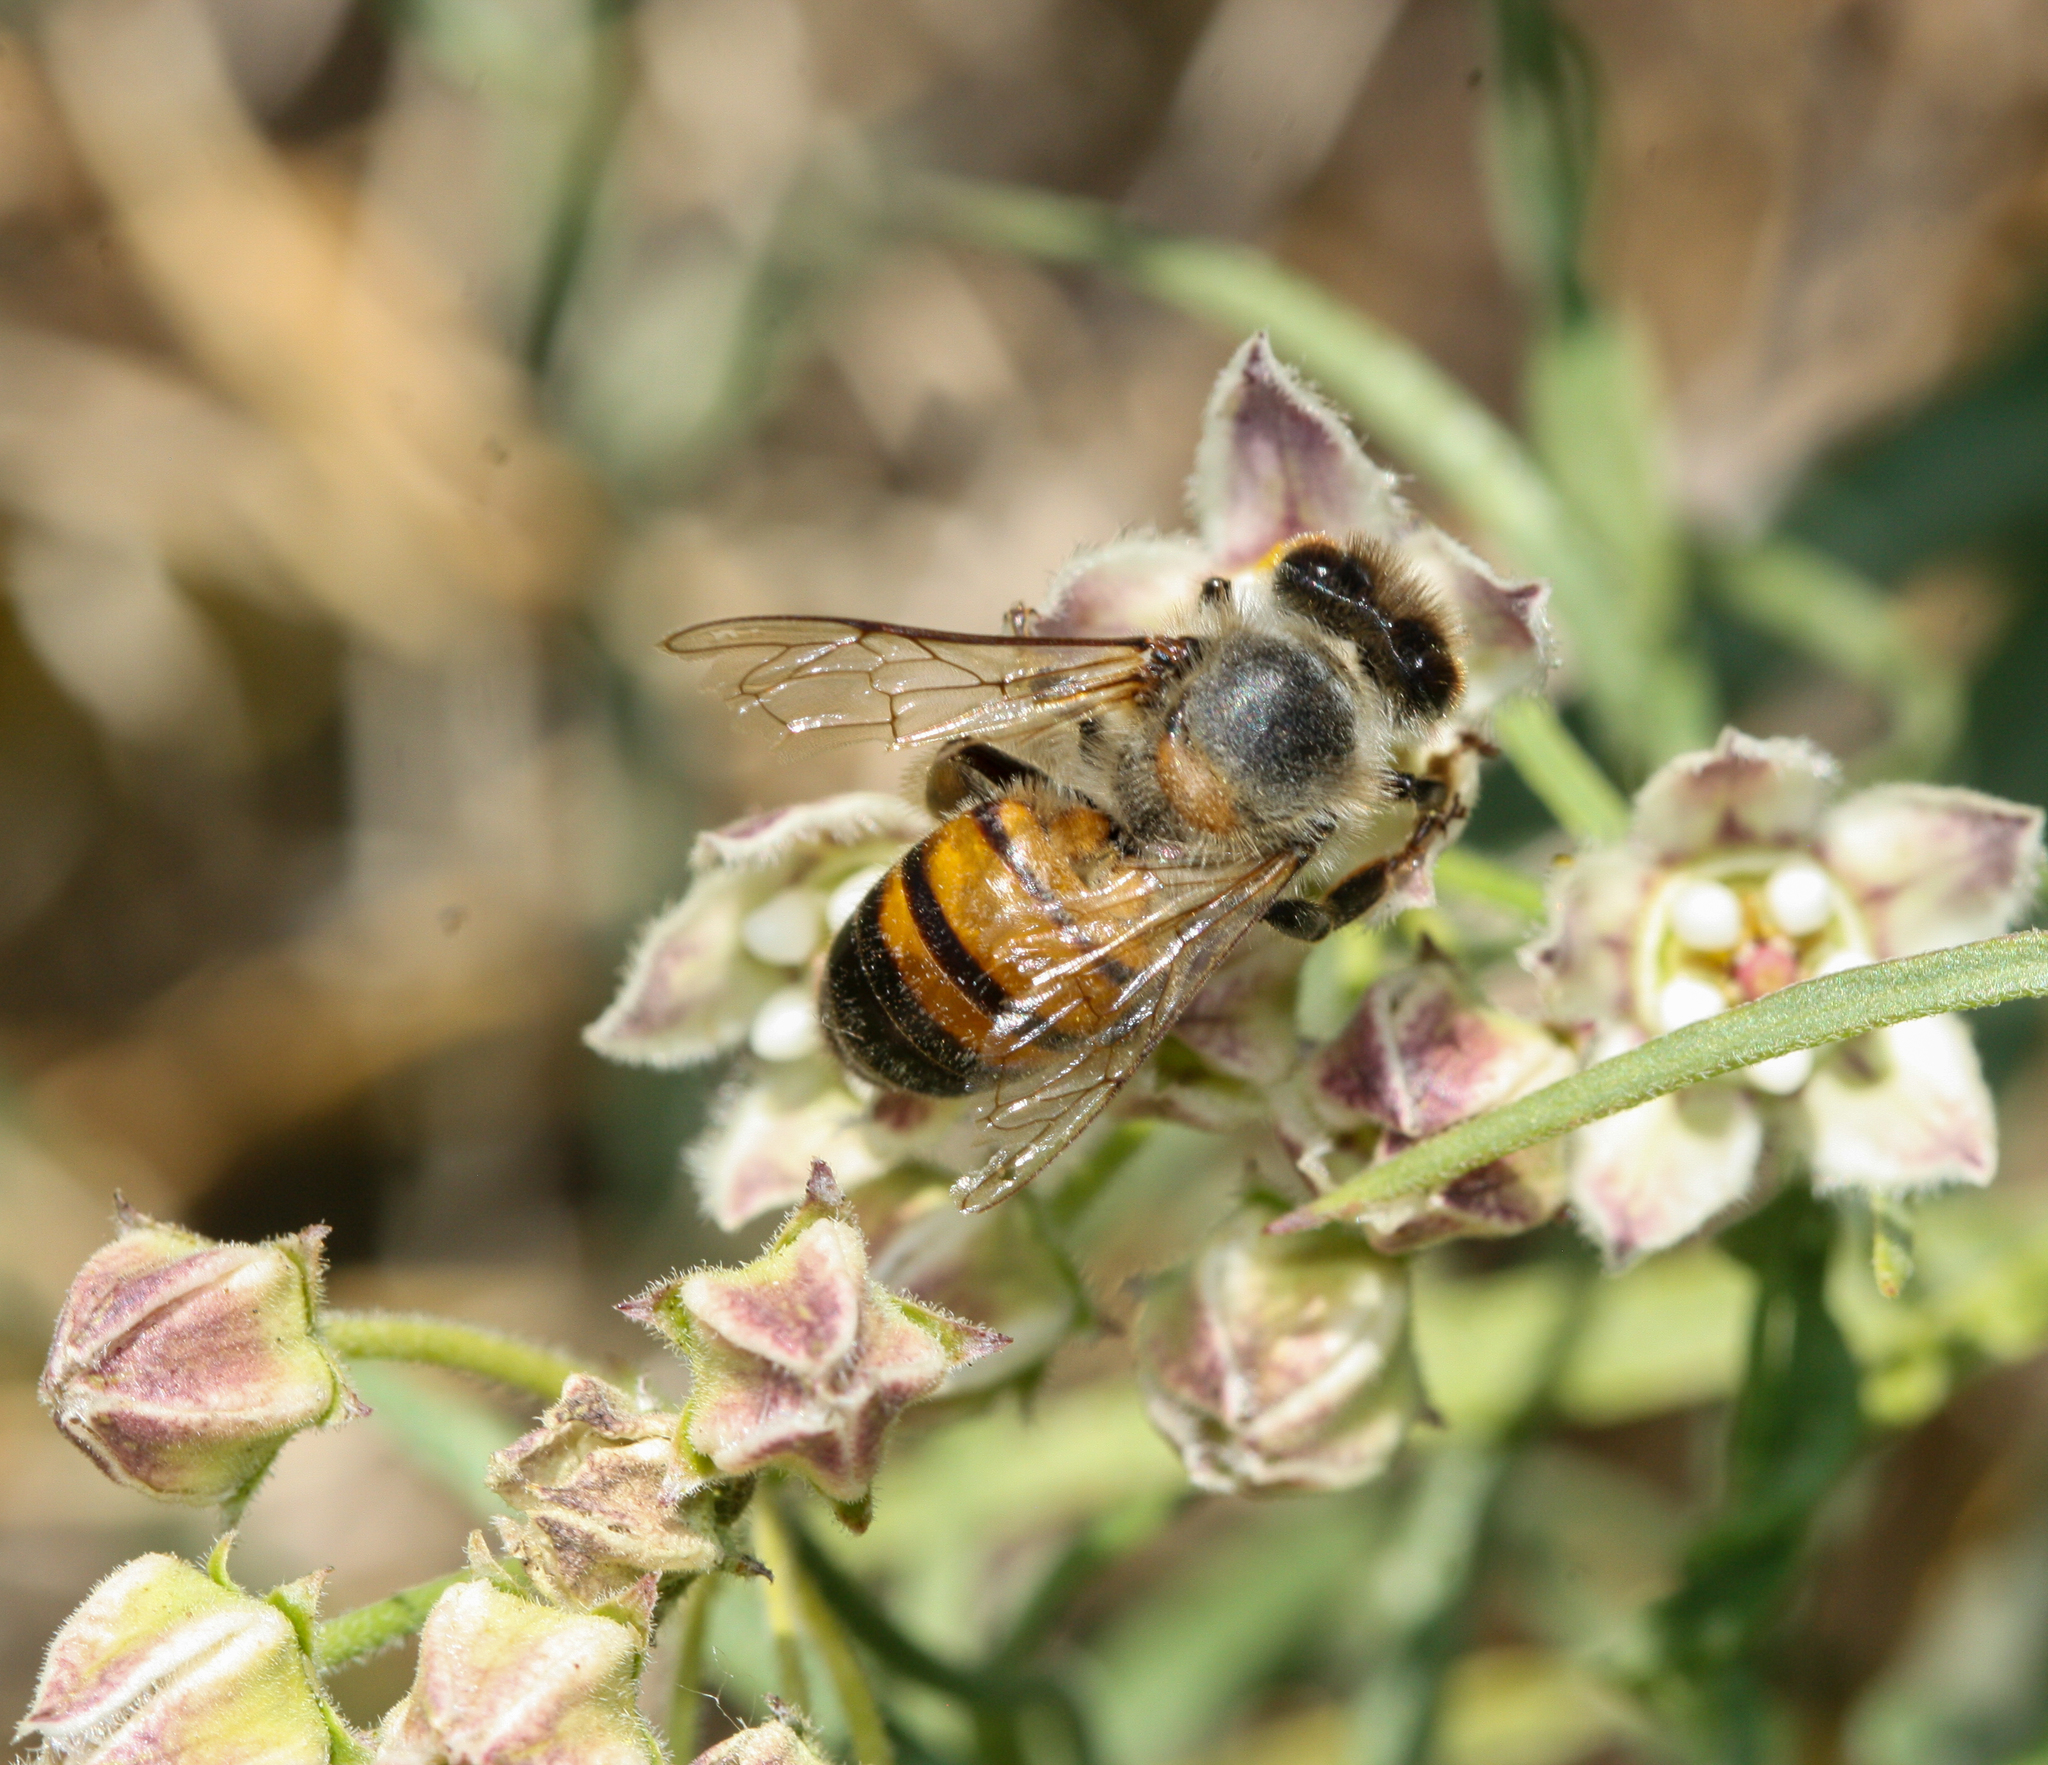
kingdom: Animalia
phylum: Arthropoda
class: Insecta
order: Hymenoptera
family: Apidae
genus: Apis
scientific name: Apis mellifera
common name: Honey bee
